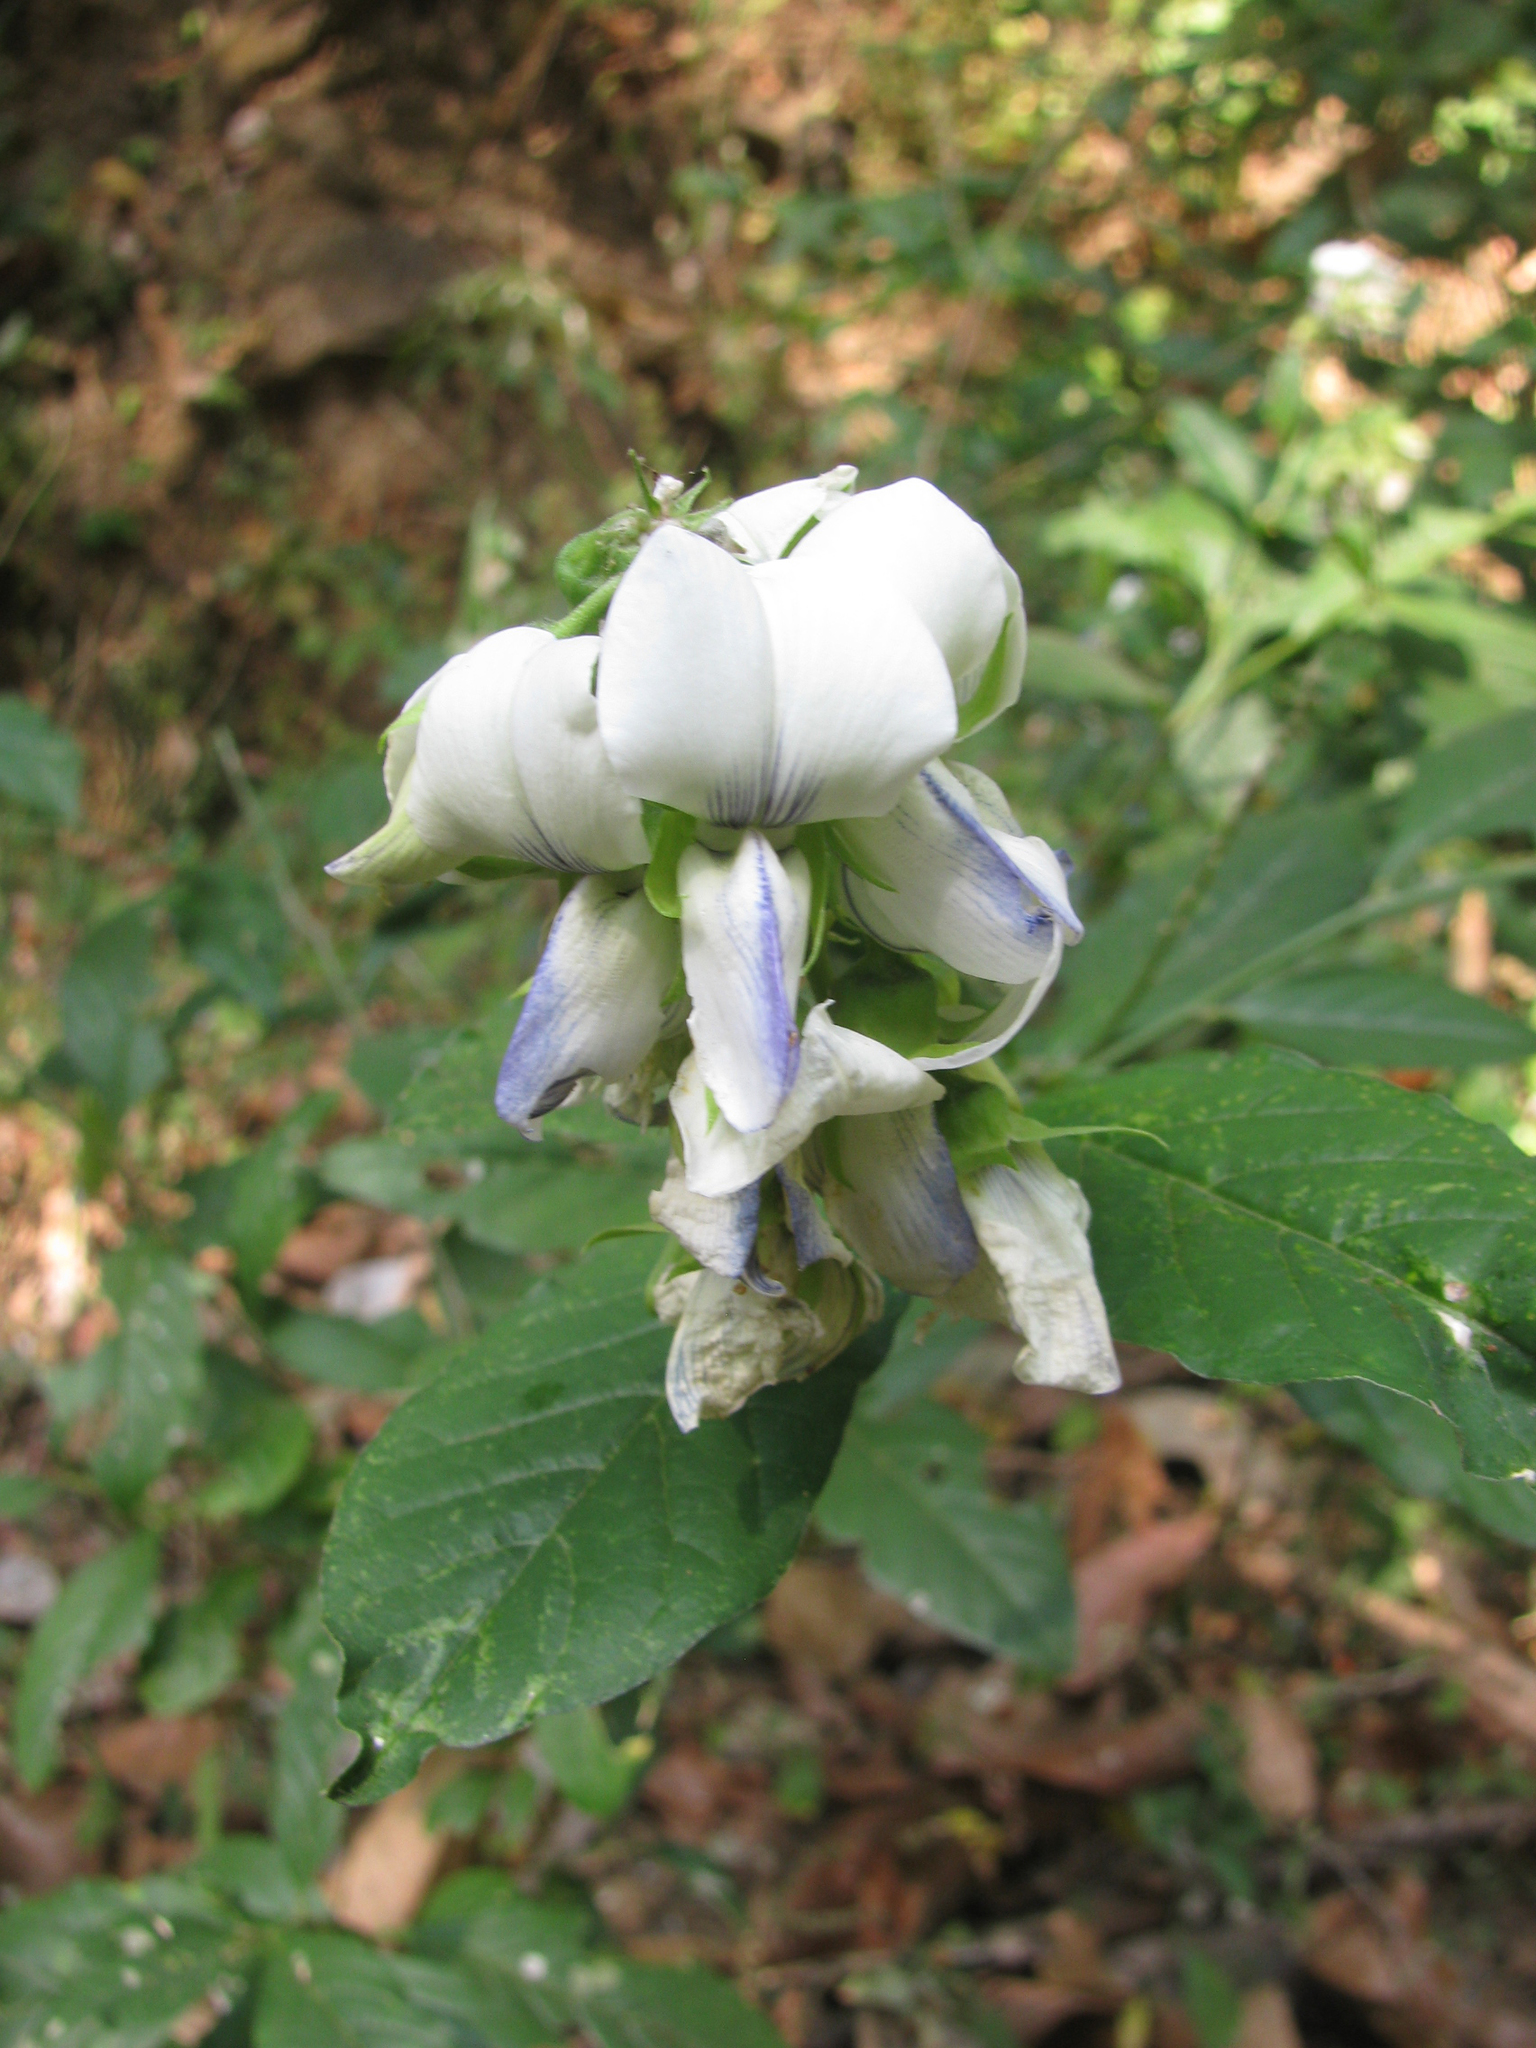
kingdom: Plantae
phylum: Tracheophyta
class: Magnoliopsida
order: Fabales
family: Fabaceae
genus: Crotalaria
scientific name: Crotalaria heyneana
